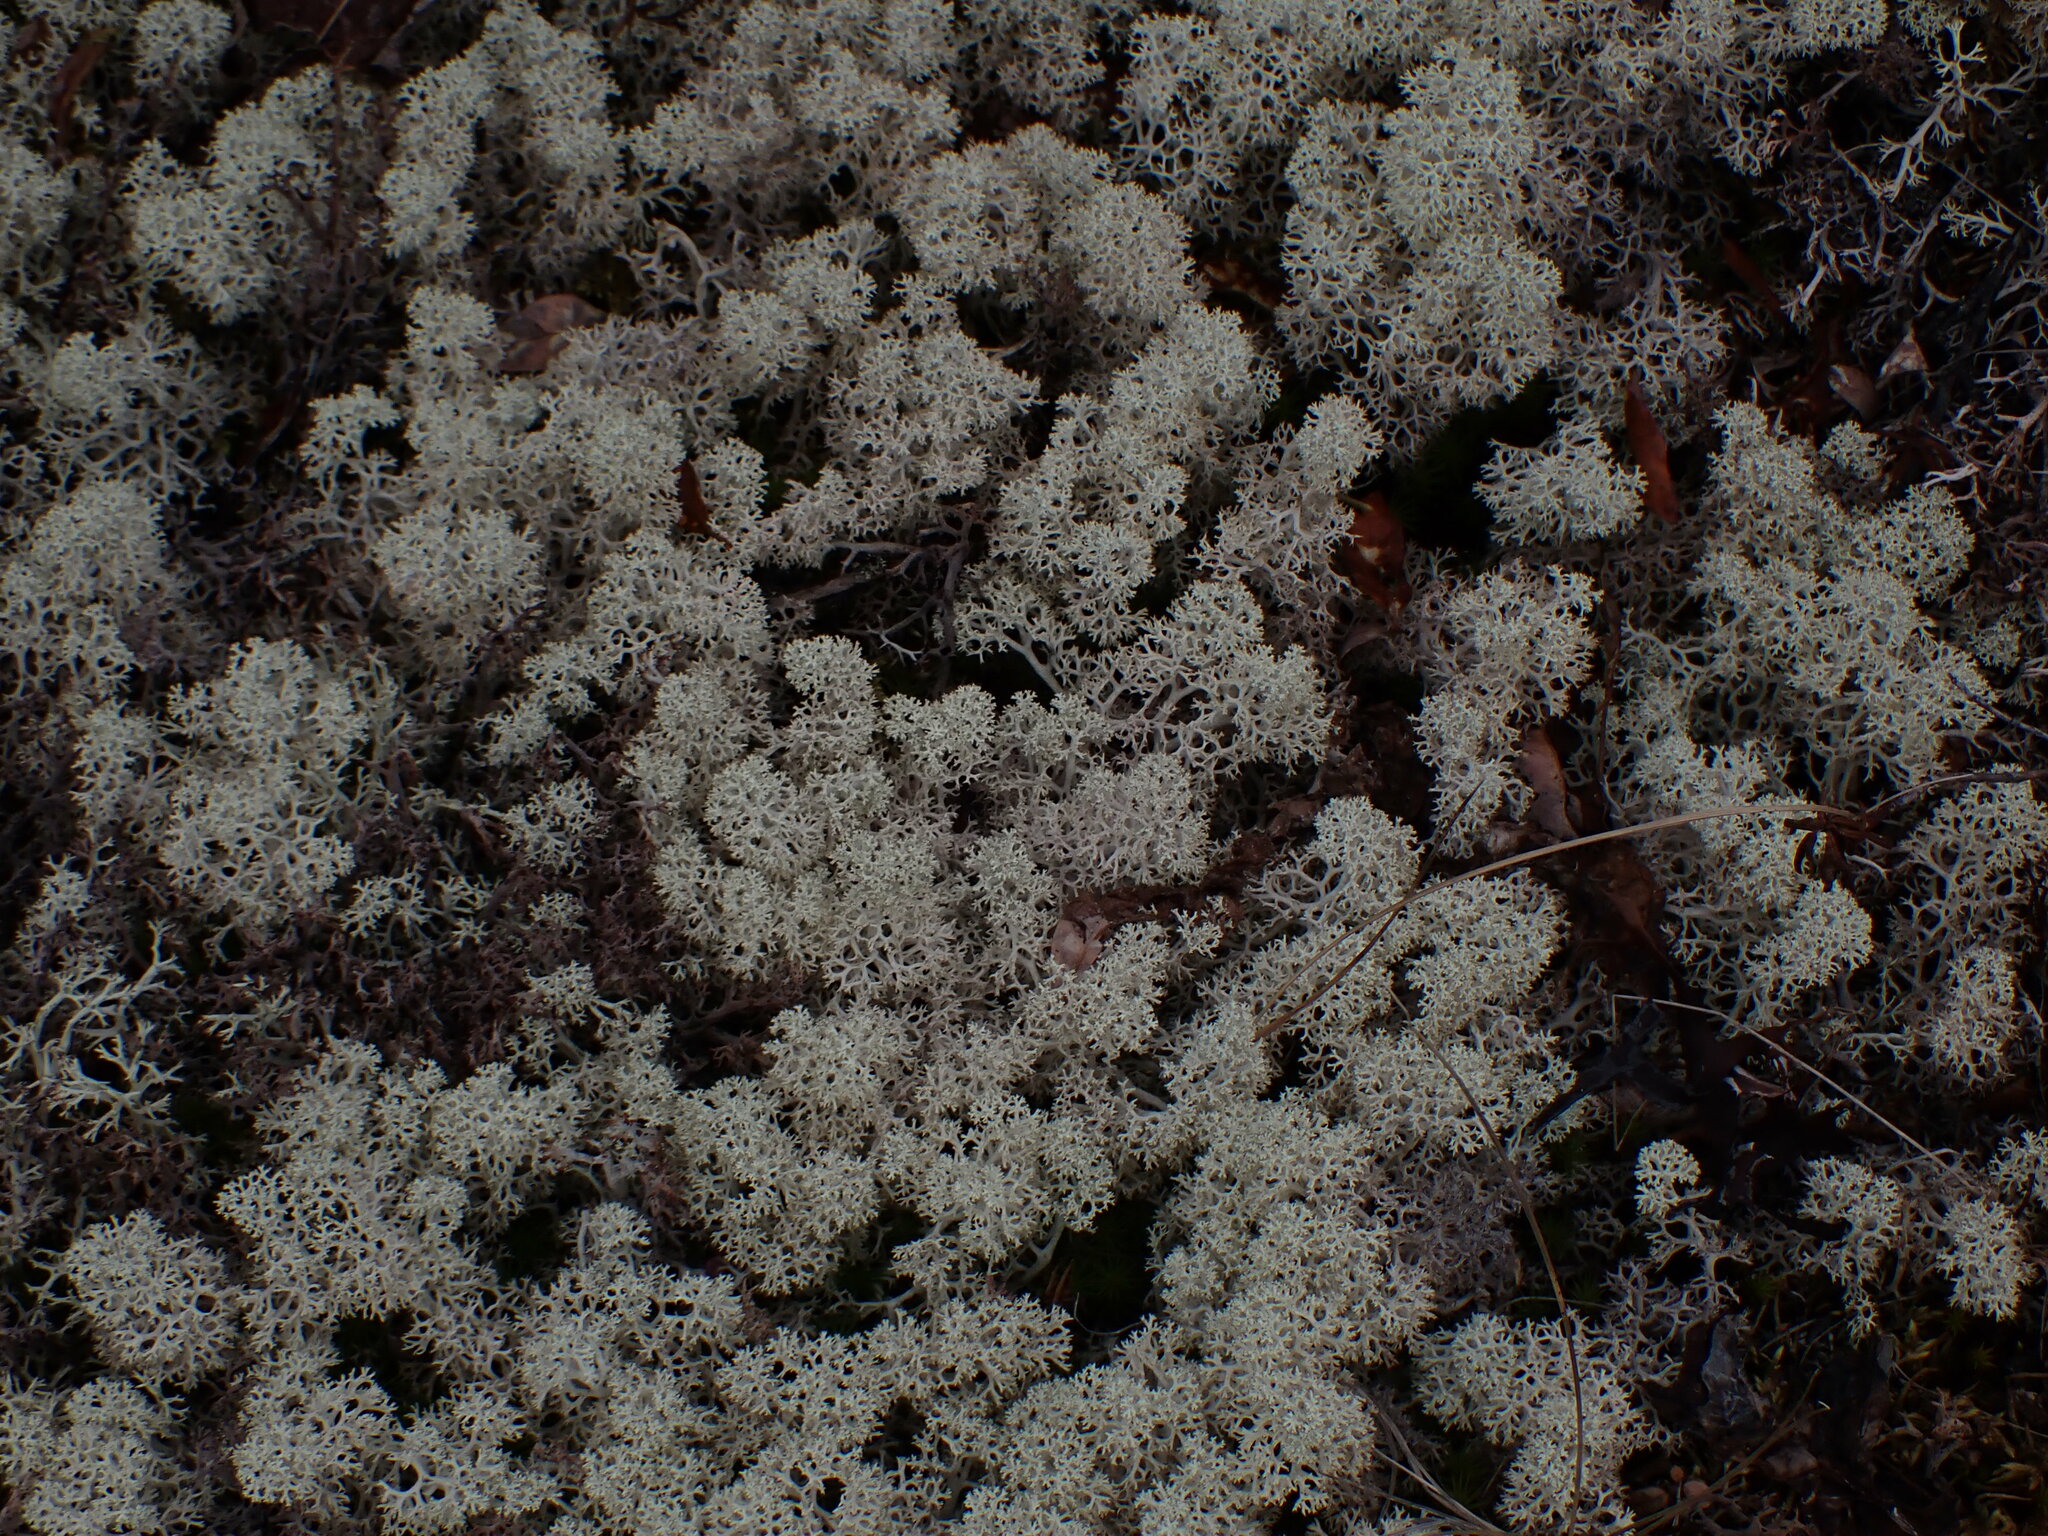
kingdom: Fungi
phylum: Ascomycota
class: Lecanoromycetes
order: Lecanorales
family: Cladoniaceae
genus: Cladonia
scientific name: Cladonia stellaris
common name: Star-tipped reindeer lichen
